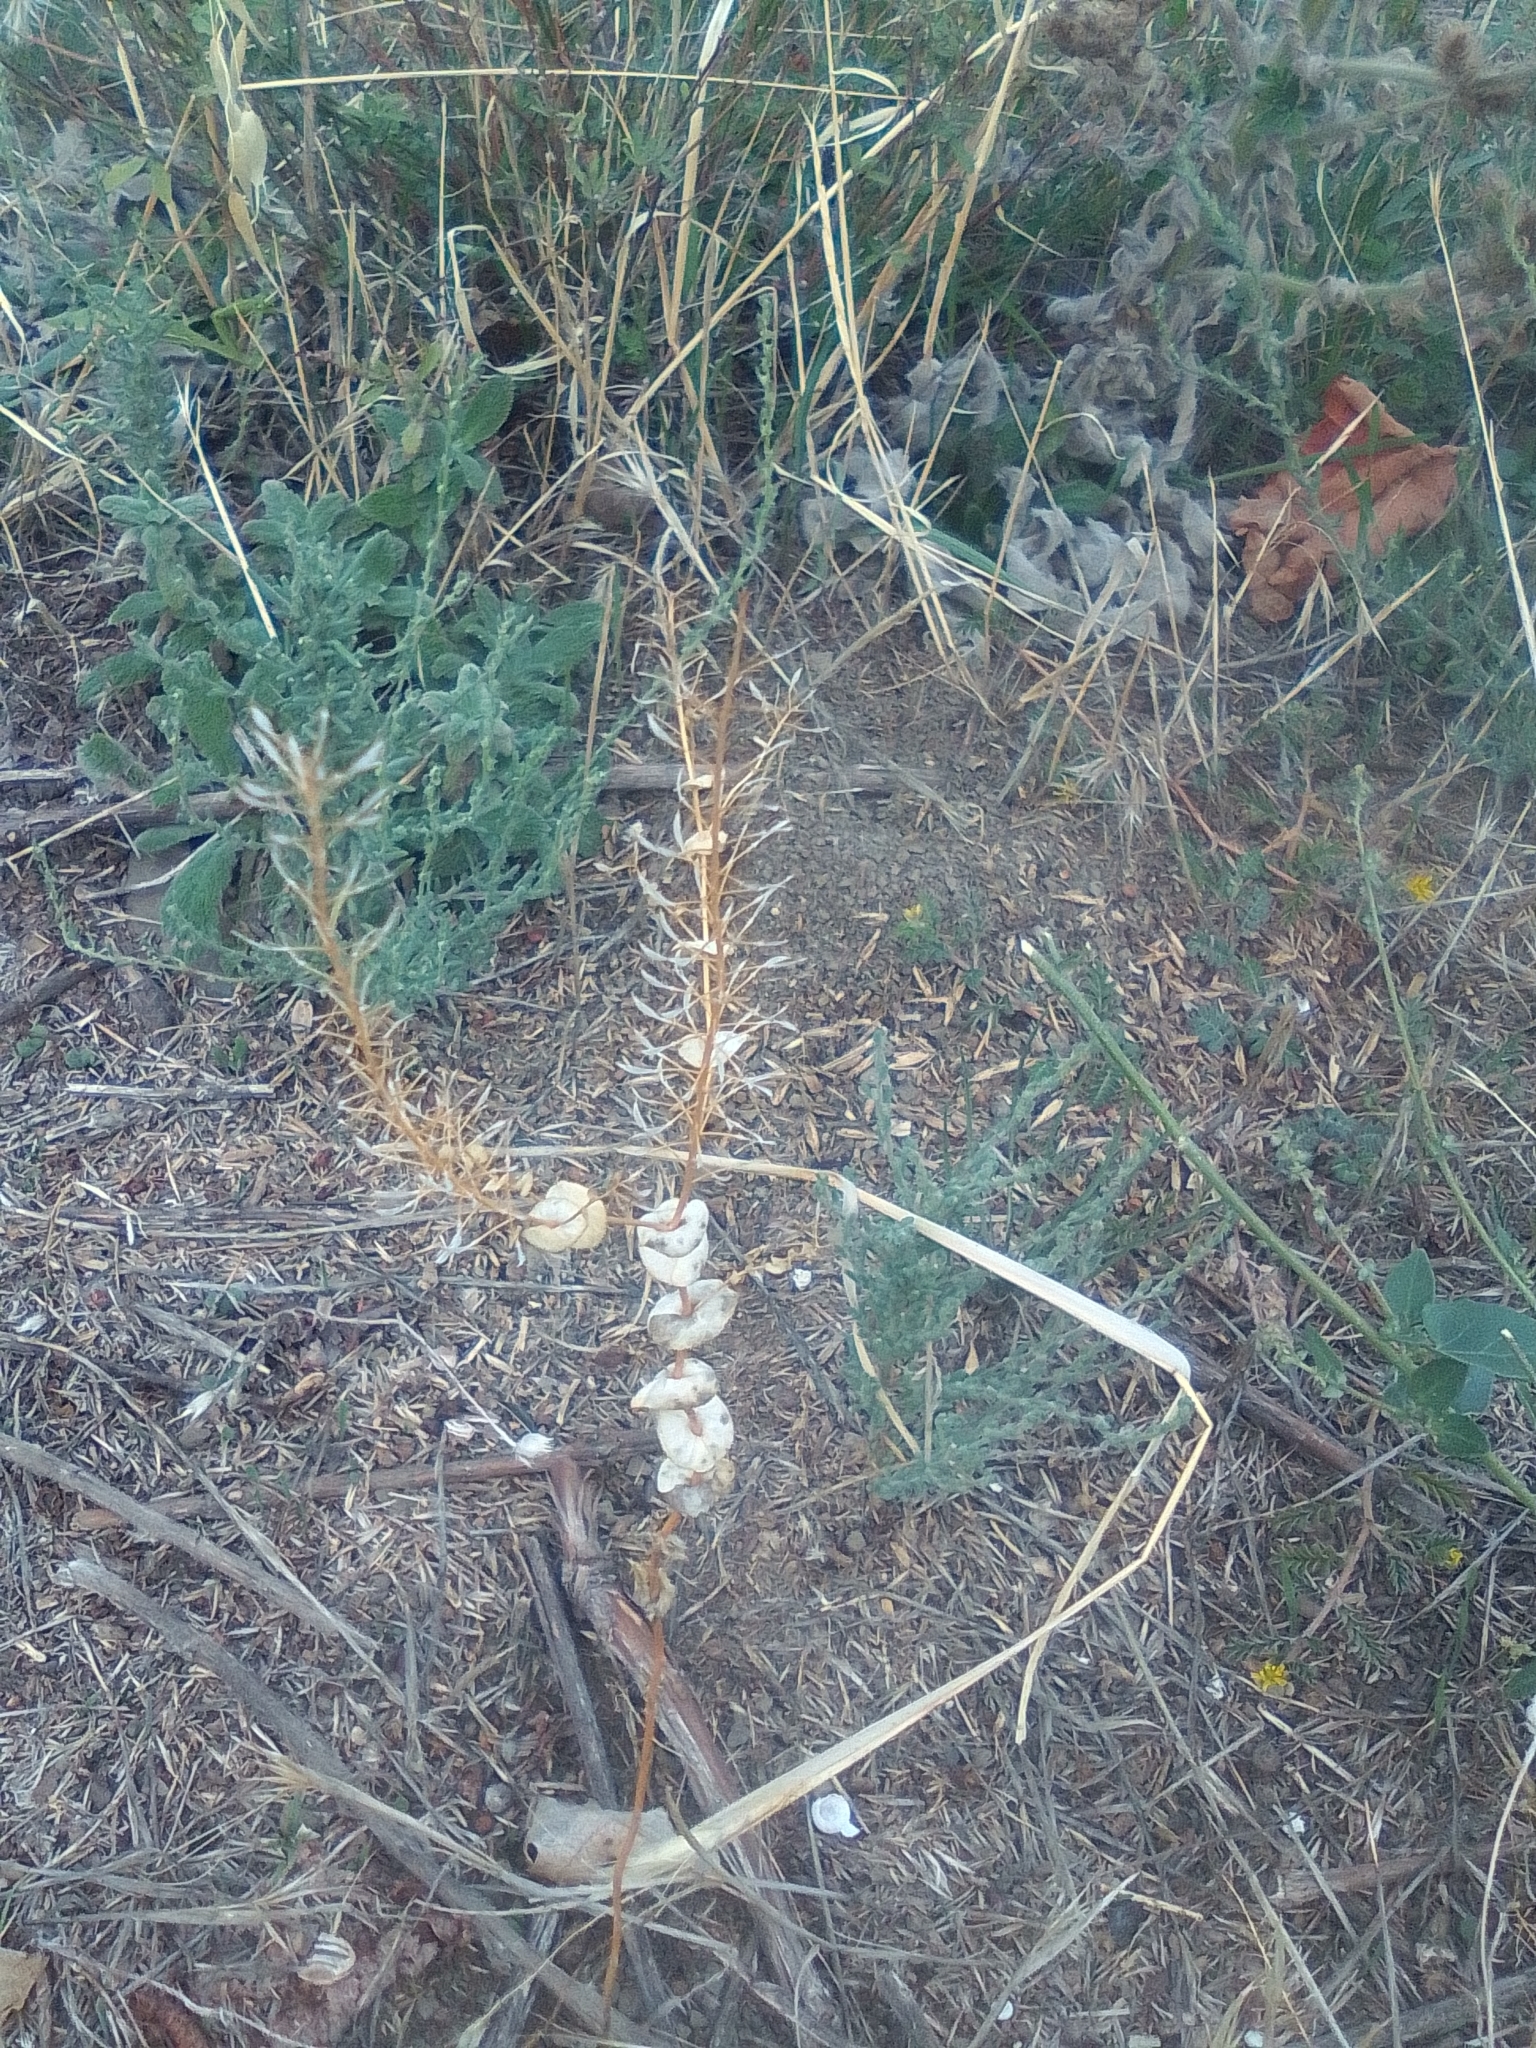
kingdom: Plantae
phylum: Tracheophyta
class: Magnoliopsida
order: Brassicales
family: Brassicaceae
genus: Lepidium
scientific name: Lepidium perfoliatum
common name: Perfoliate pepperwort
